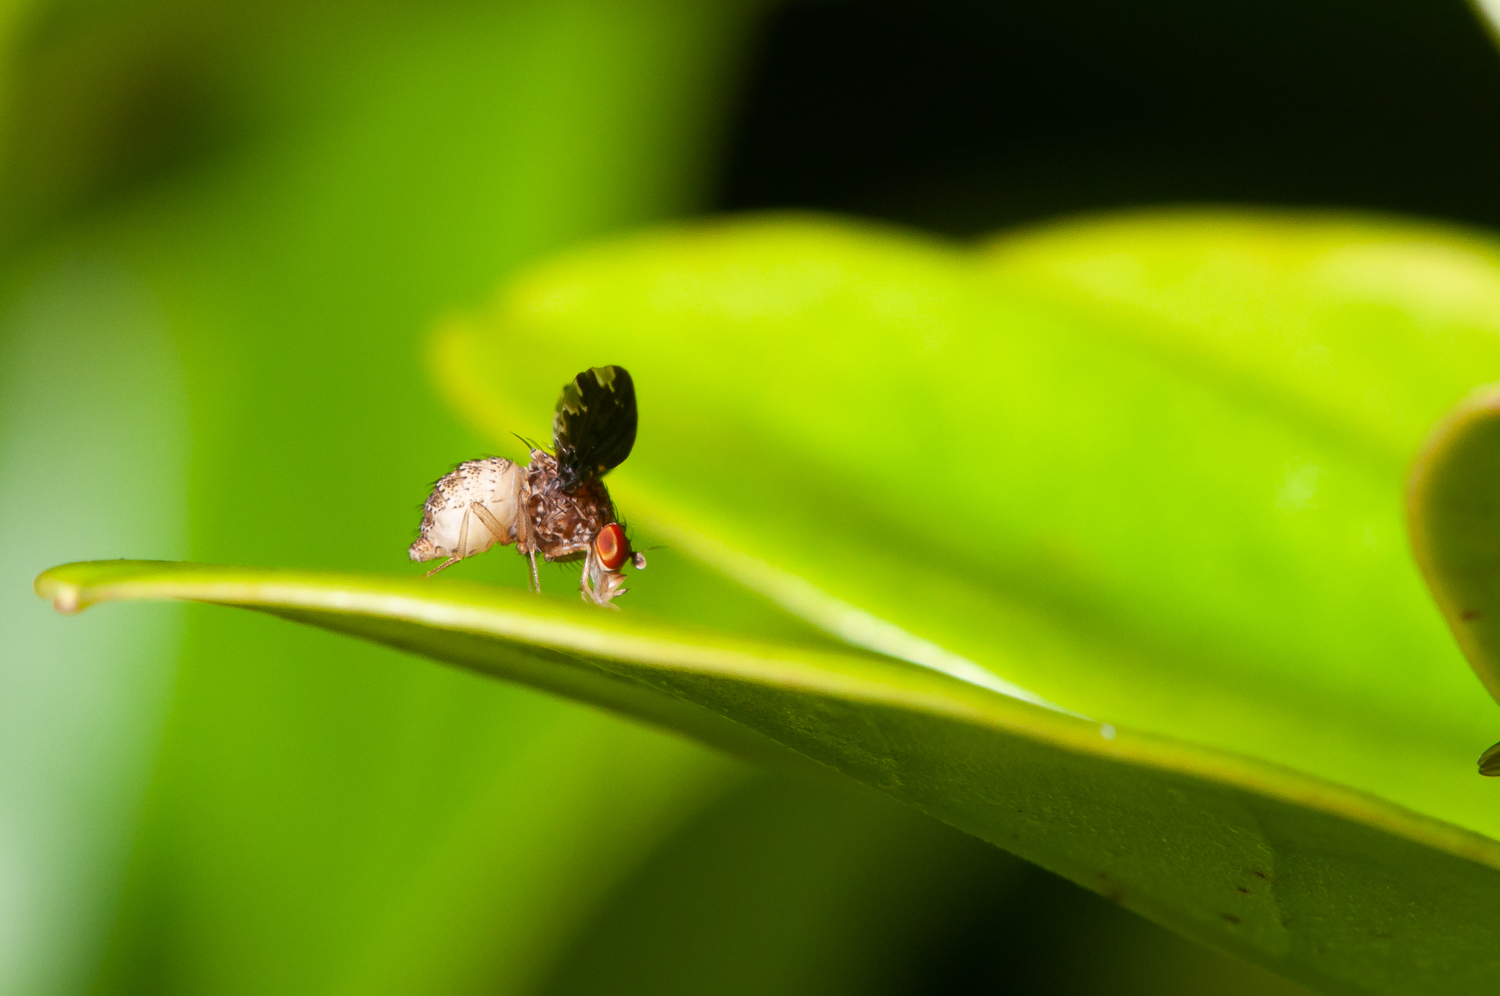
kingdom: Animalia
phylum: Arthropoda
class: Insecta
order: Diptera
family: Lauxaniidae
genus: Chaetocoelia
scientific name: Chaetocoelia
